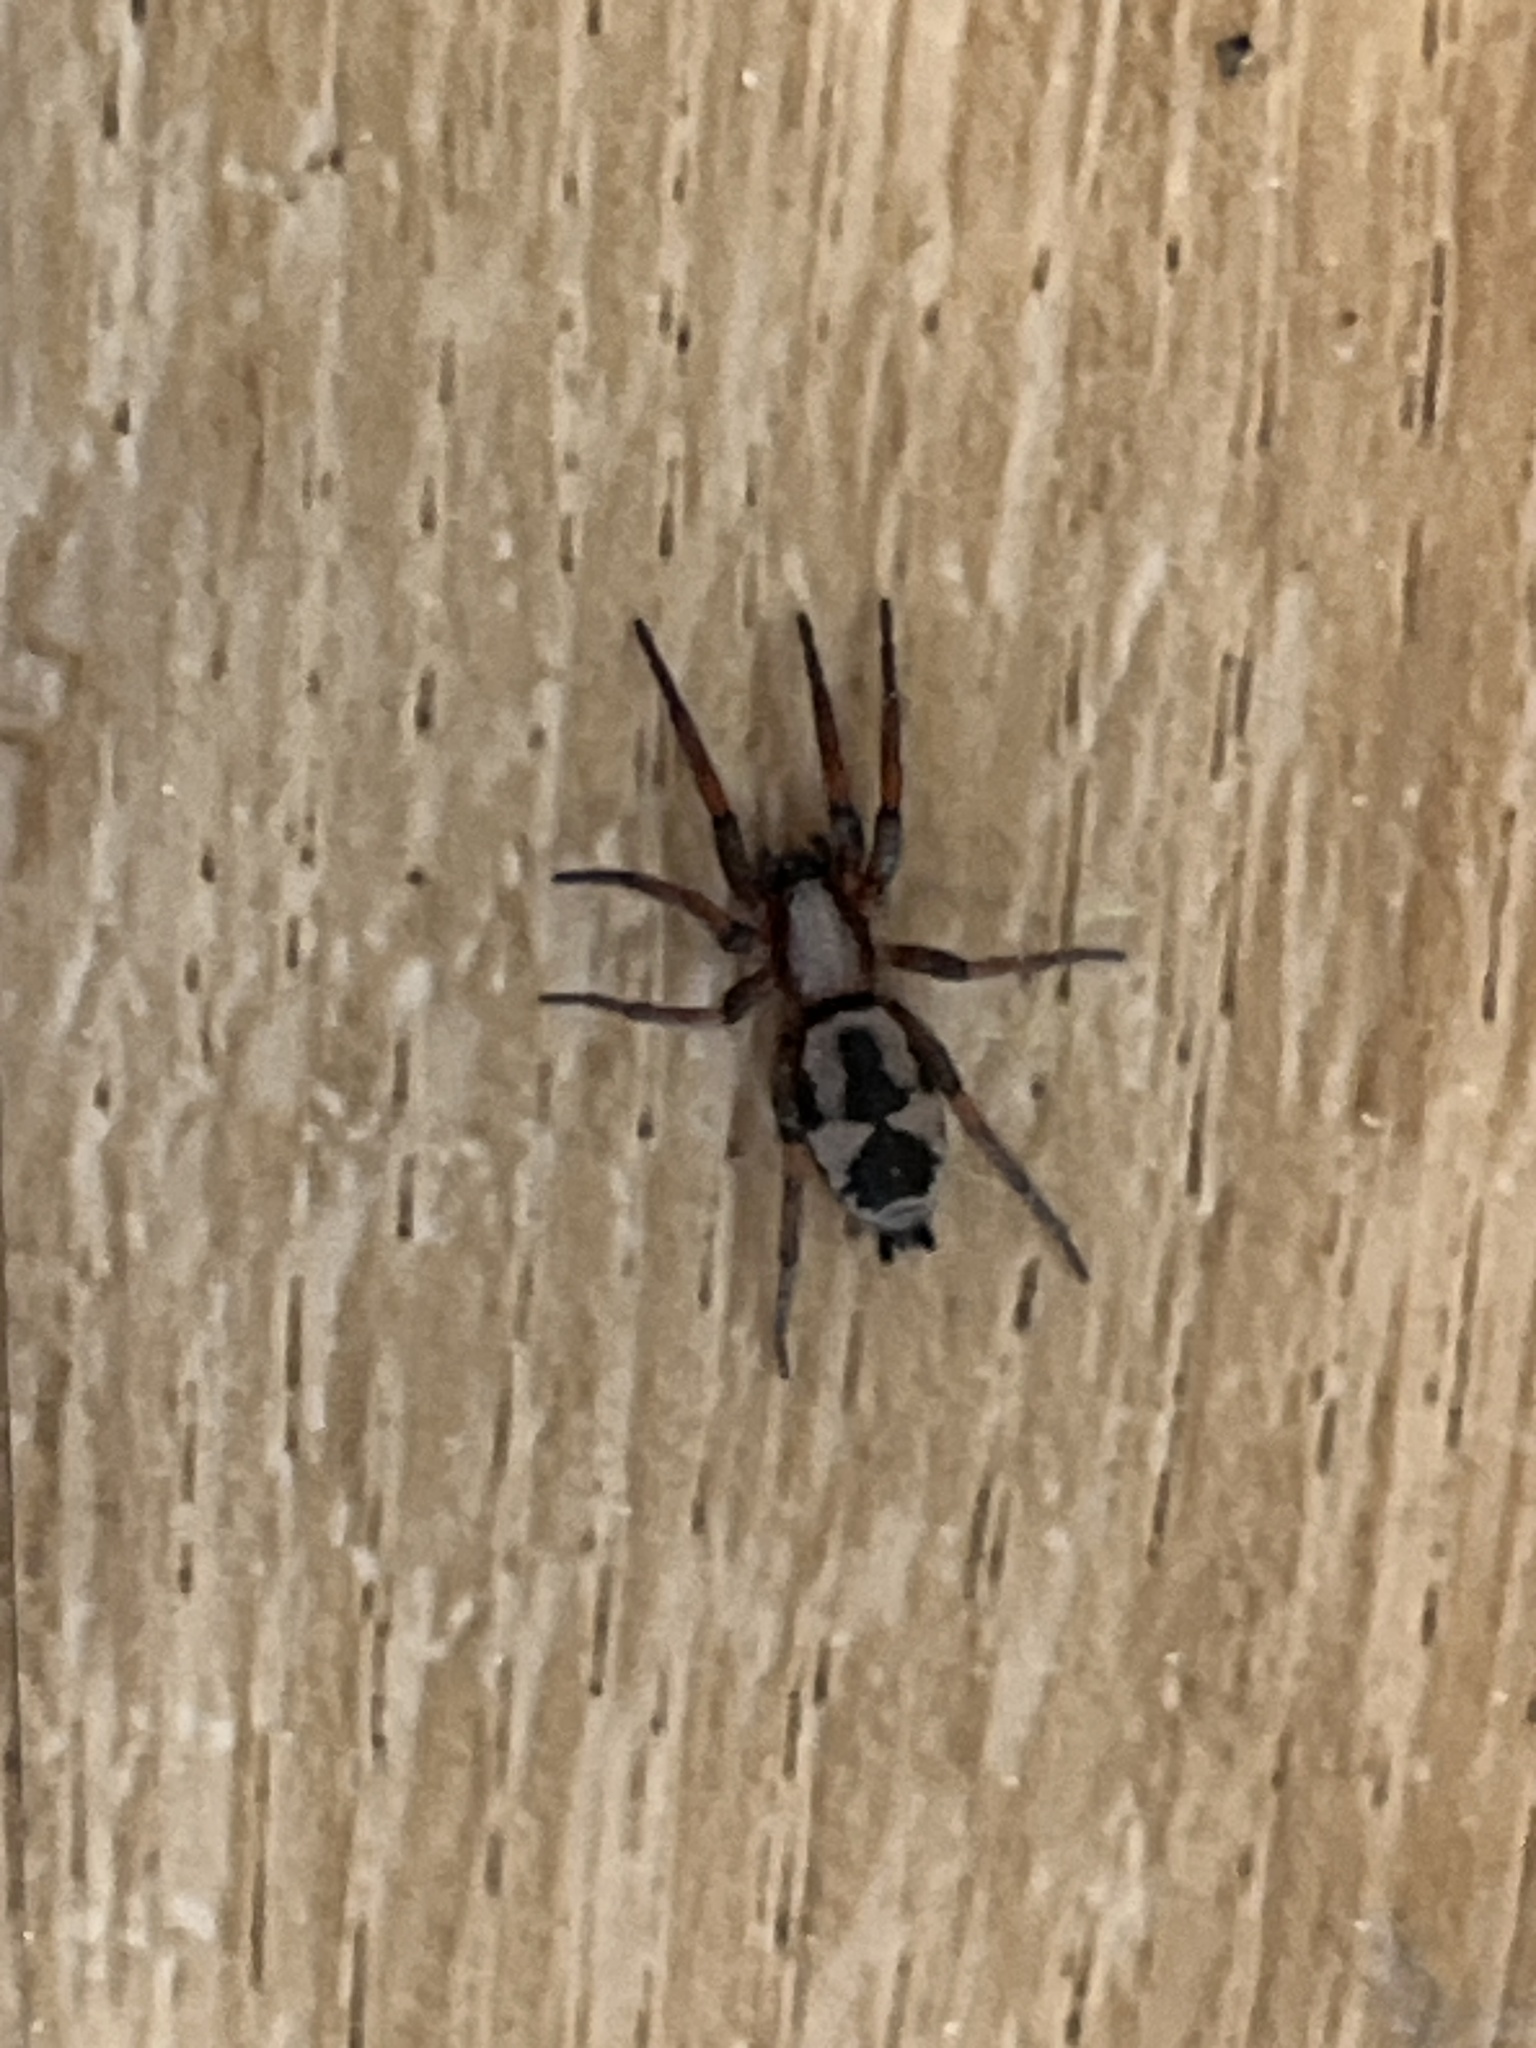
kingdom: Animalia
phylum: Arthropoda
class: Arachnida
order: Araneae
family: Gnaphosidae
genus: Sergiolus
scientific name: Sergiolus montanus
